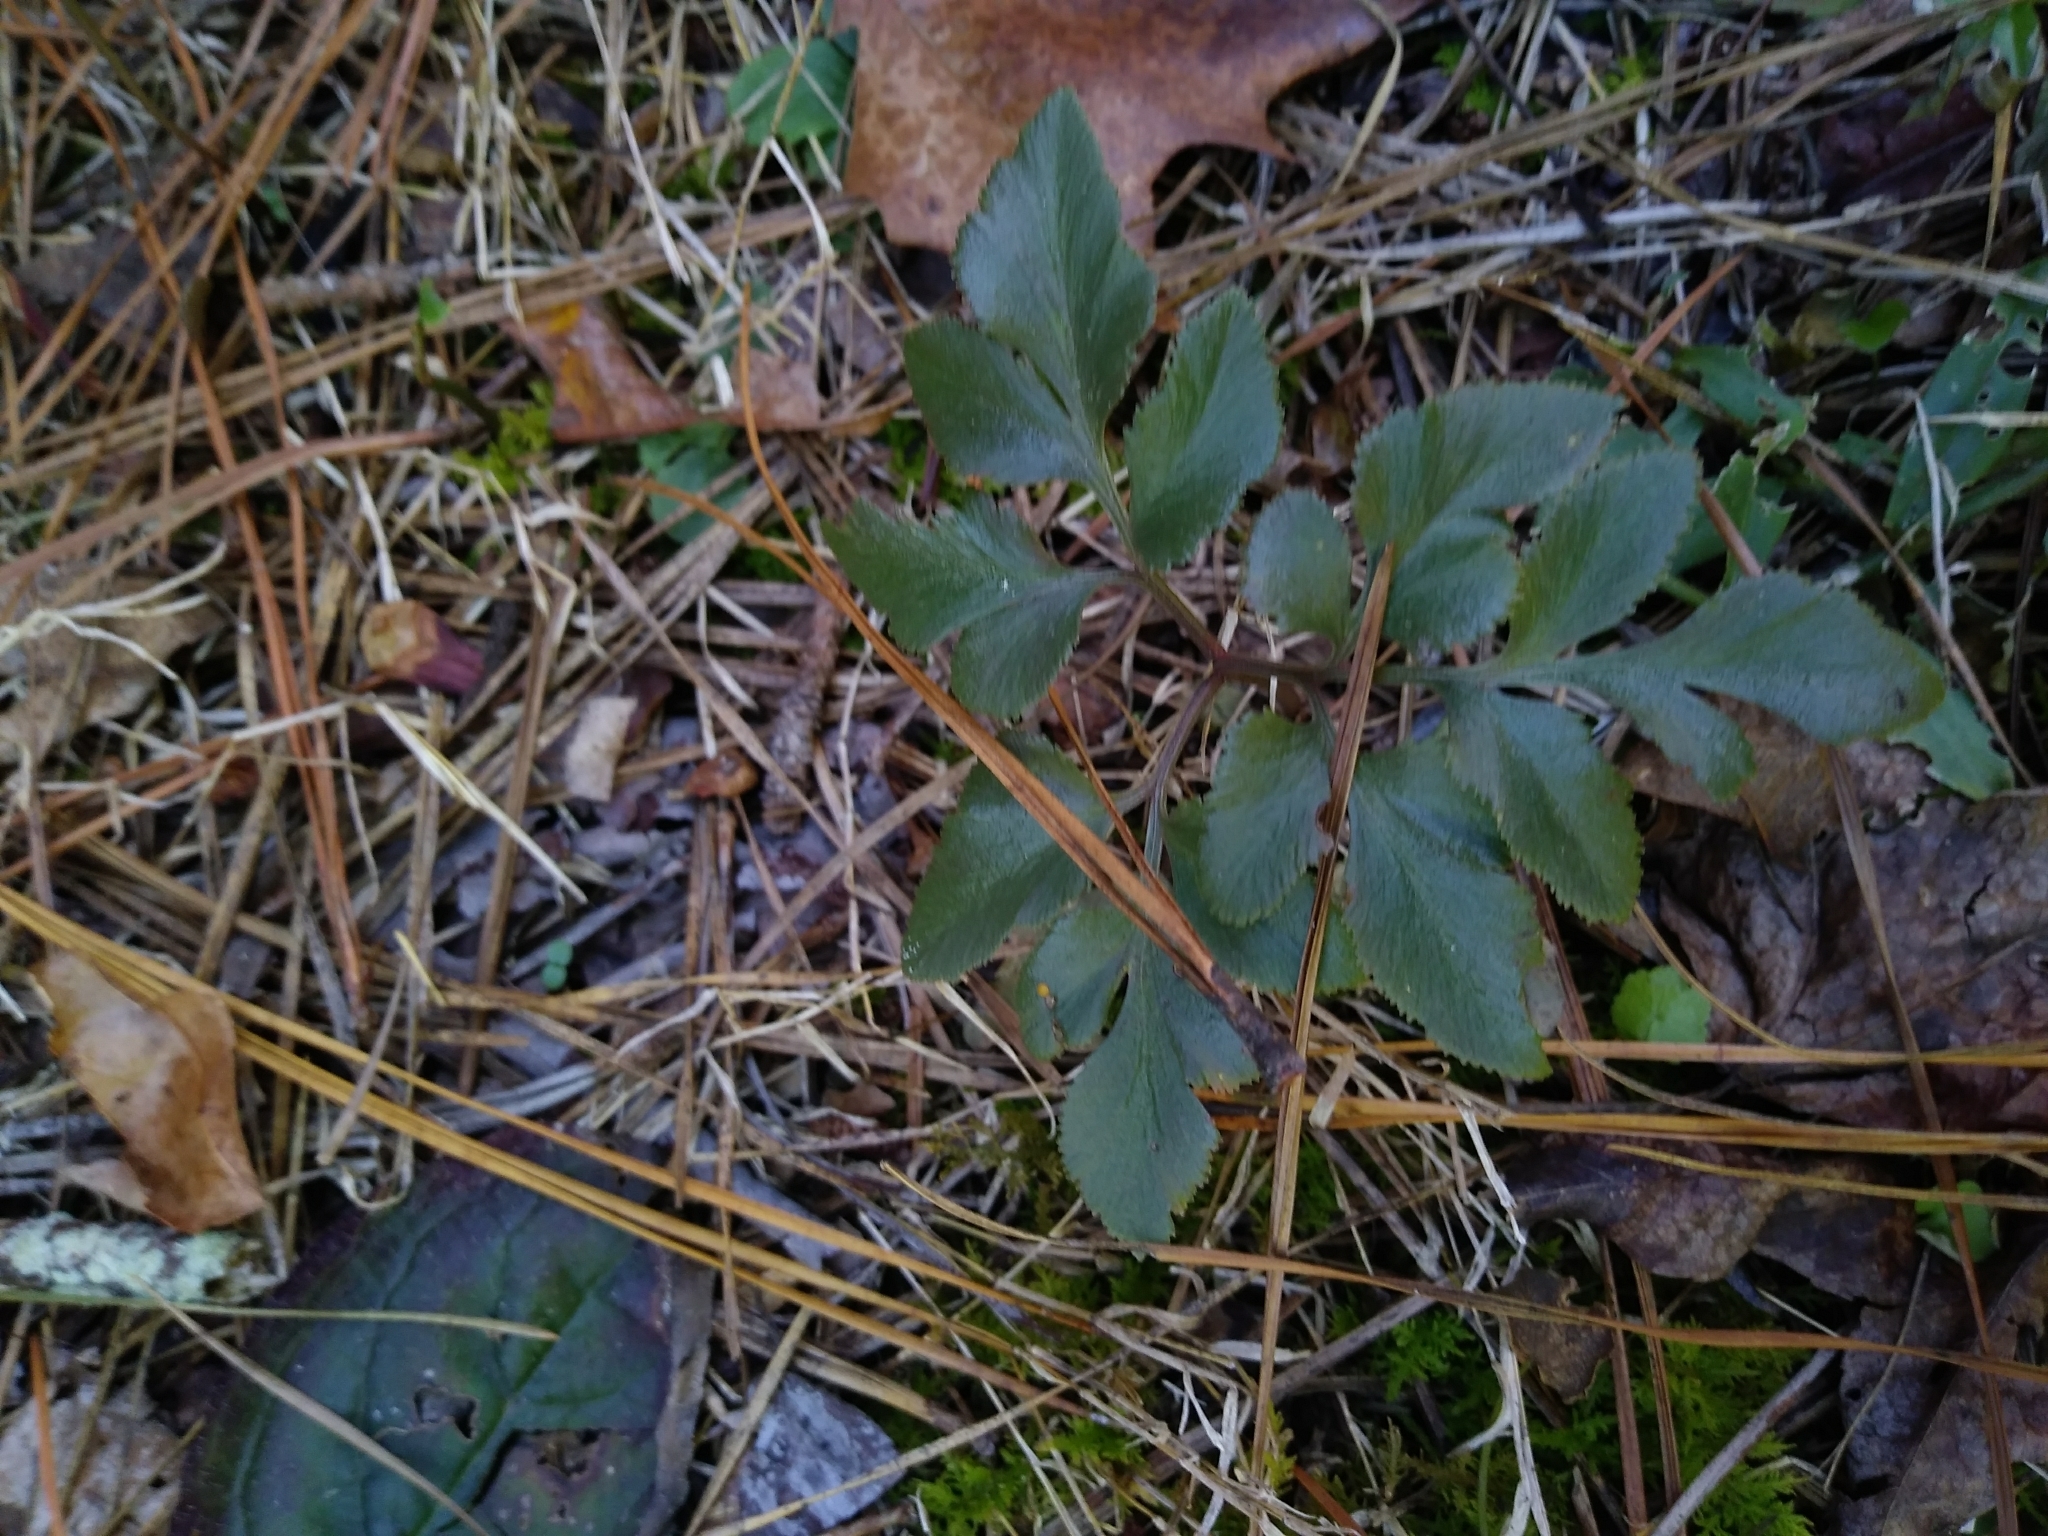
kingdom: Plantae
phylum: Tracheophyta
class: Polypodiopsida
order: Ophioglossales
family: Ophioglossaceae
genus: Sceptridium
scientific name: Sceptridium biternatum
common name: Sparse-lobed grapefern
